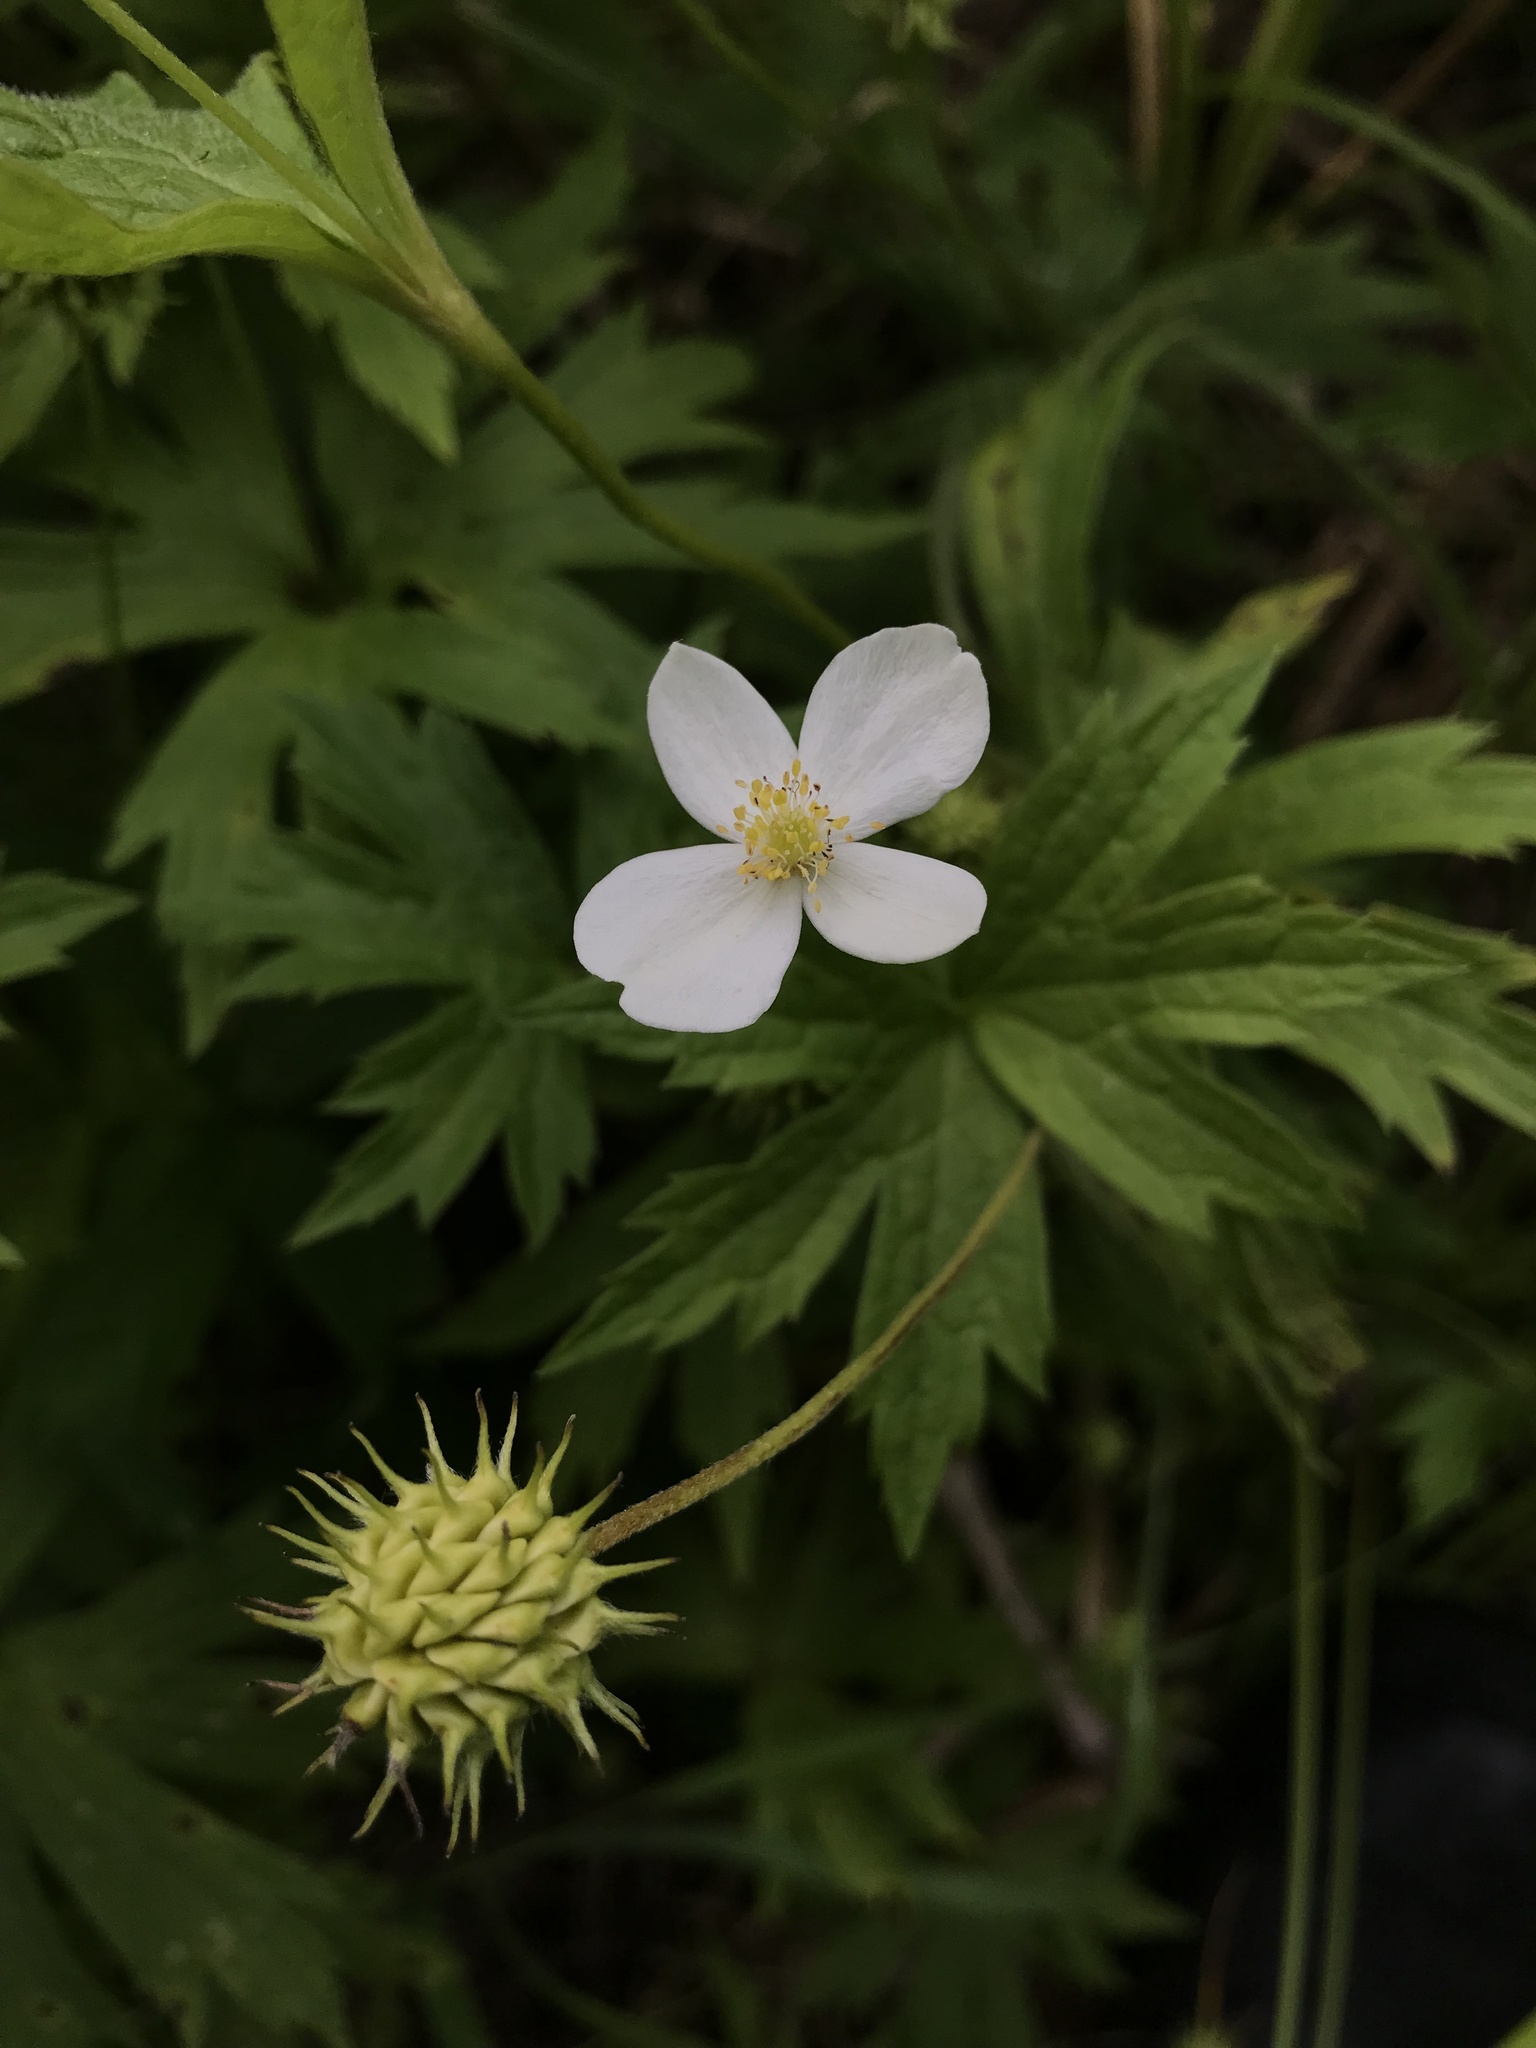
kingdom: Plantae
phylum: Tracheophyta
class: Magnoliopsida
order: Ranunculales
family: Ranunculaceae
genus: Anemonastrum
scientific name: Anemonastrum canadense
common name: Canada anemone
